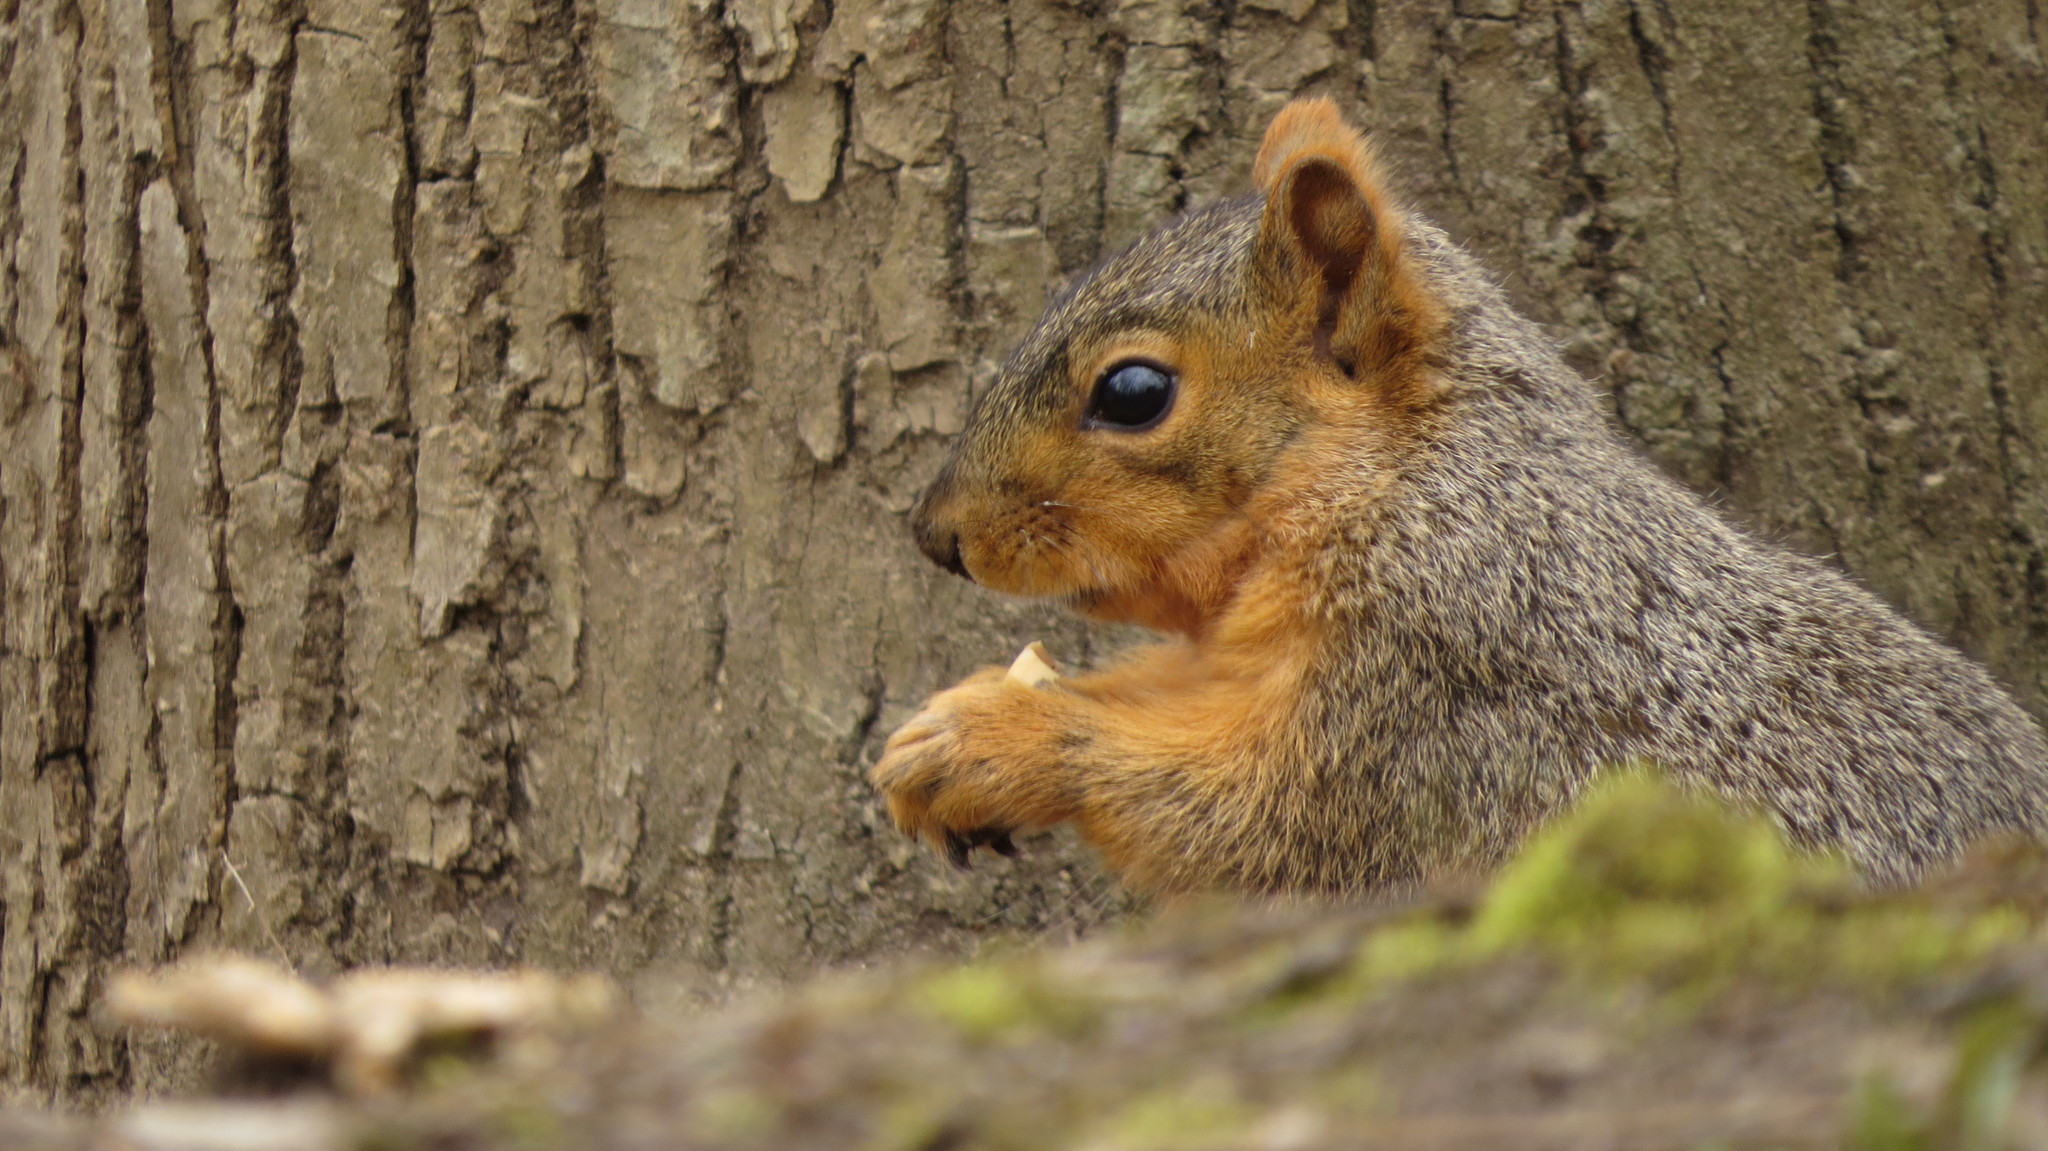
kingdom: Animalia
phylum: Chordata
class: Mammalia
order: Rodentia
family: Sciuridae
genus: Sciurus
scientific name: Sciurus niger
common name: Fox squirrel
